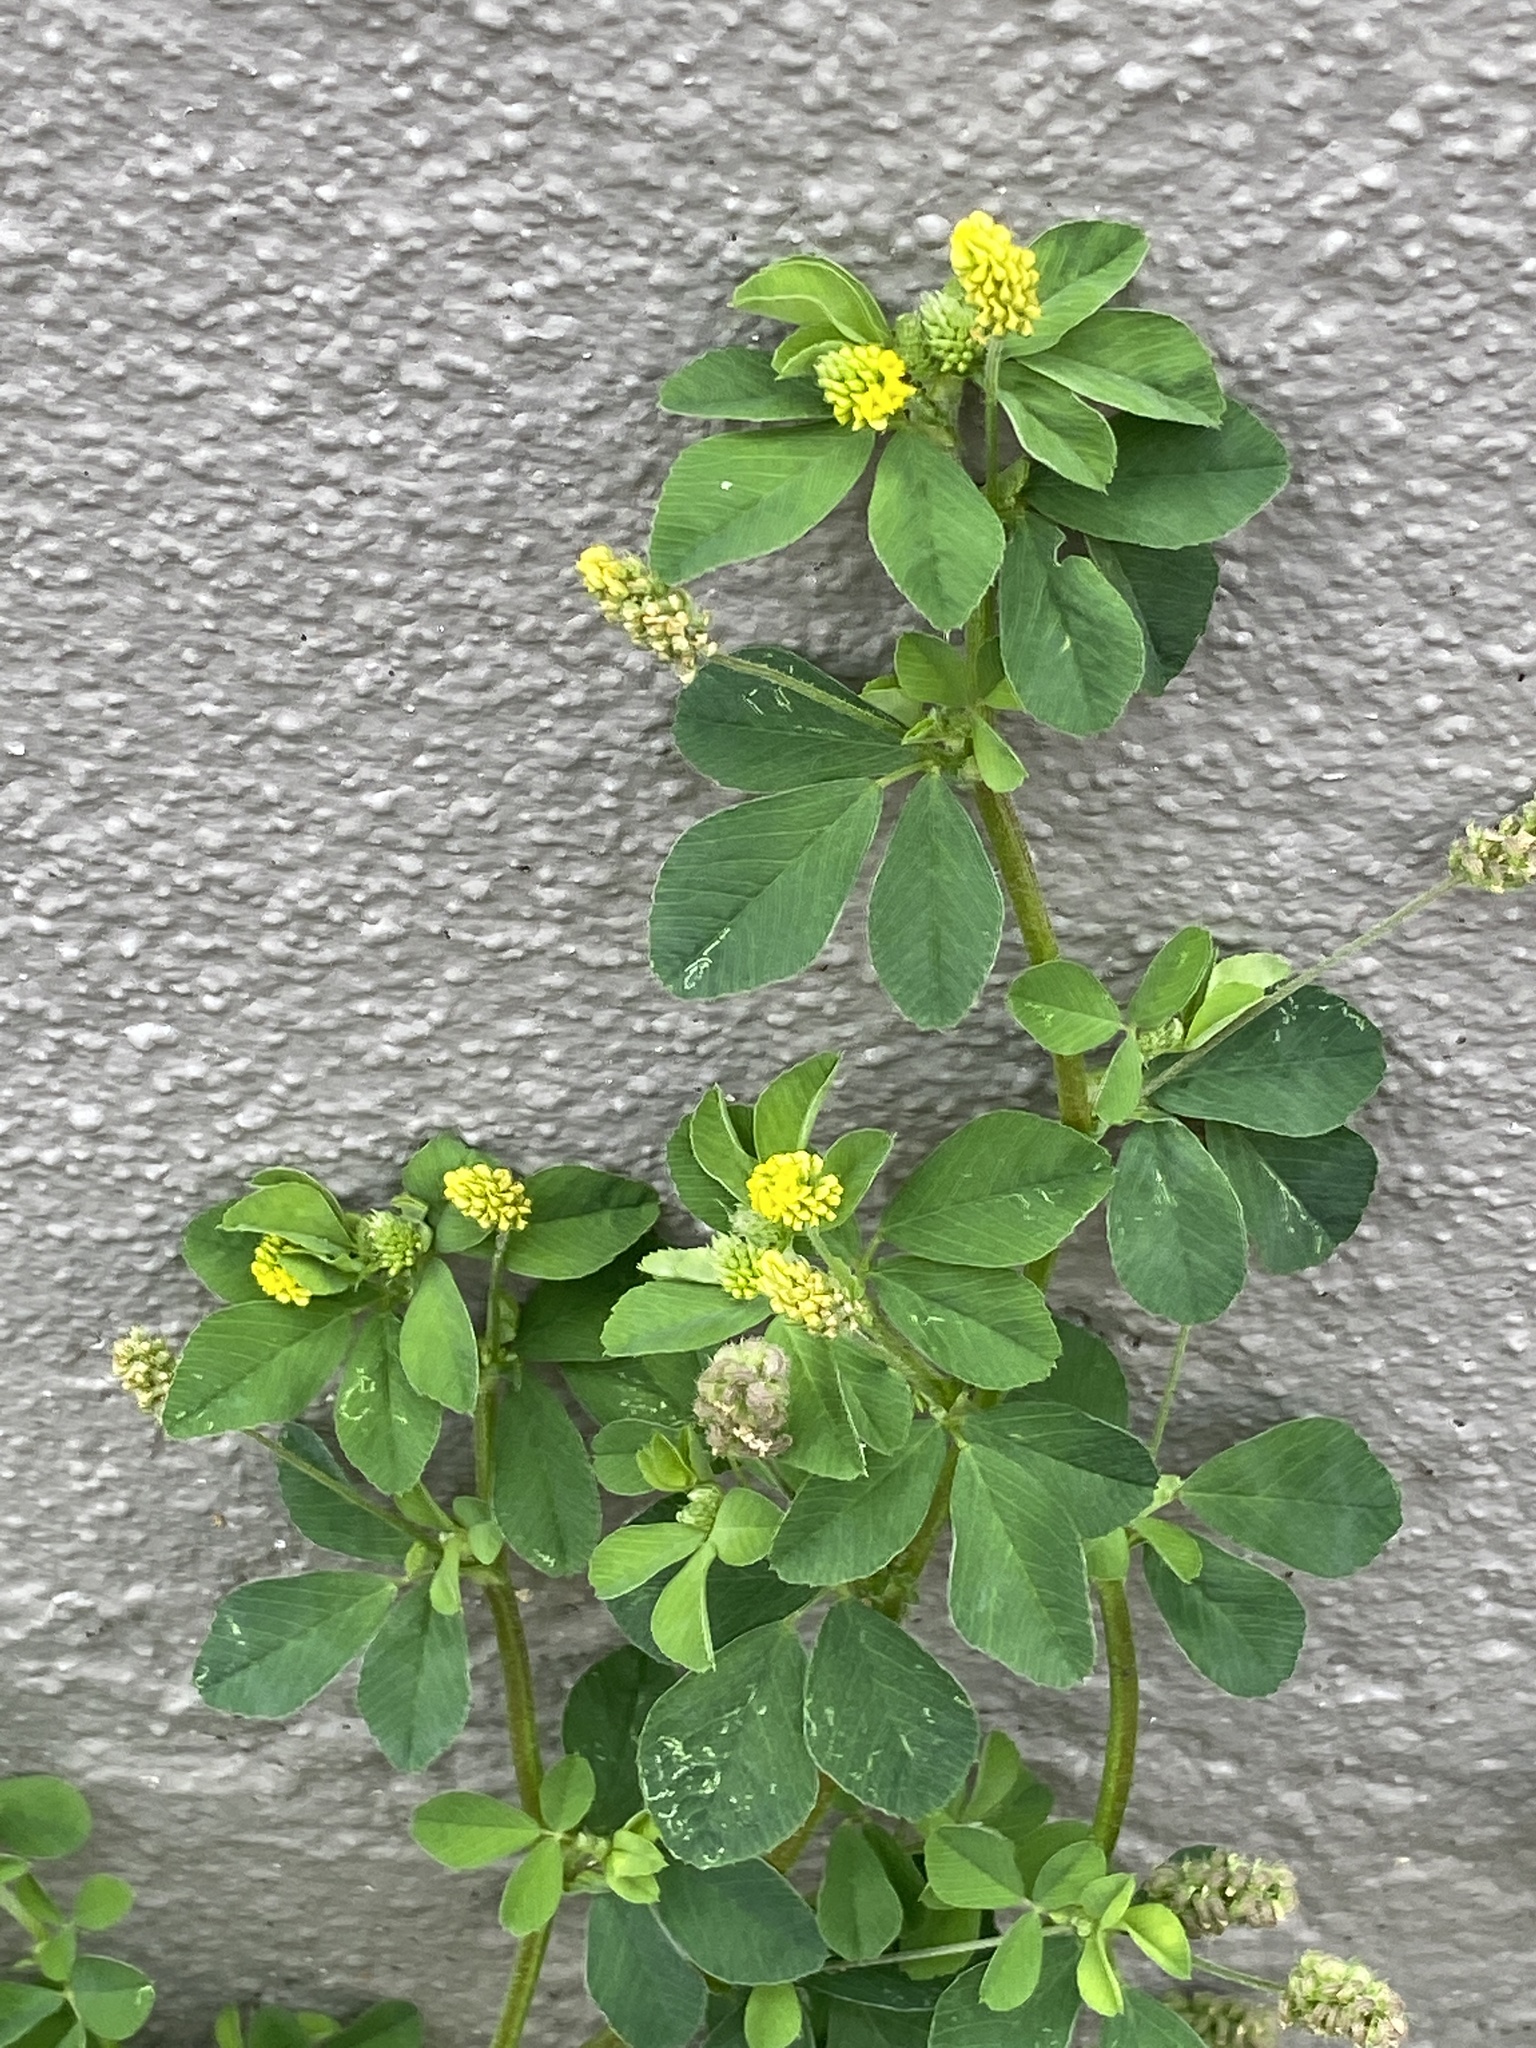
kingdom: Plantae
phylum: Tracheophyta
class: Magnoliopsida
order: Fabales
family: Fabaceae
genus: Medicago
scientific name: Medicago lupulina
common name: Black medick
